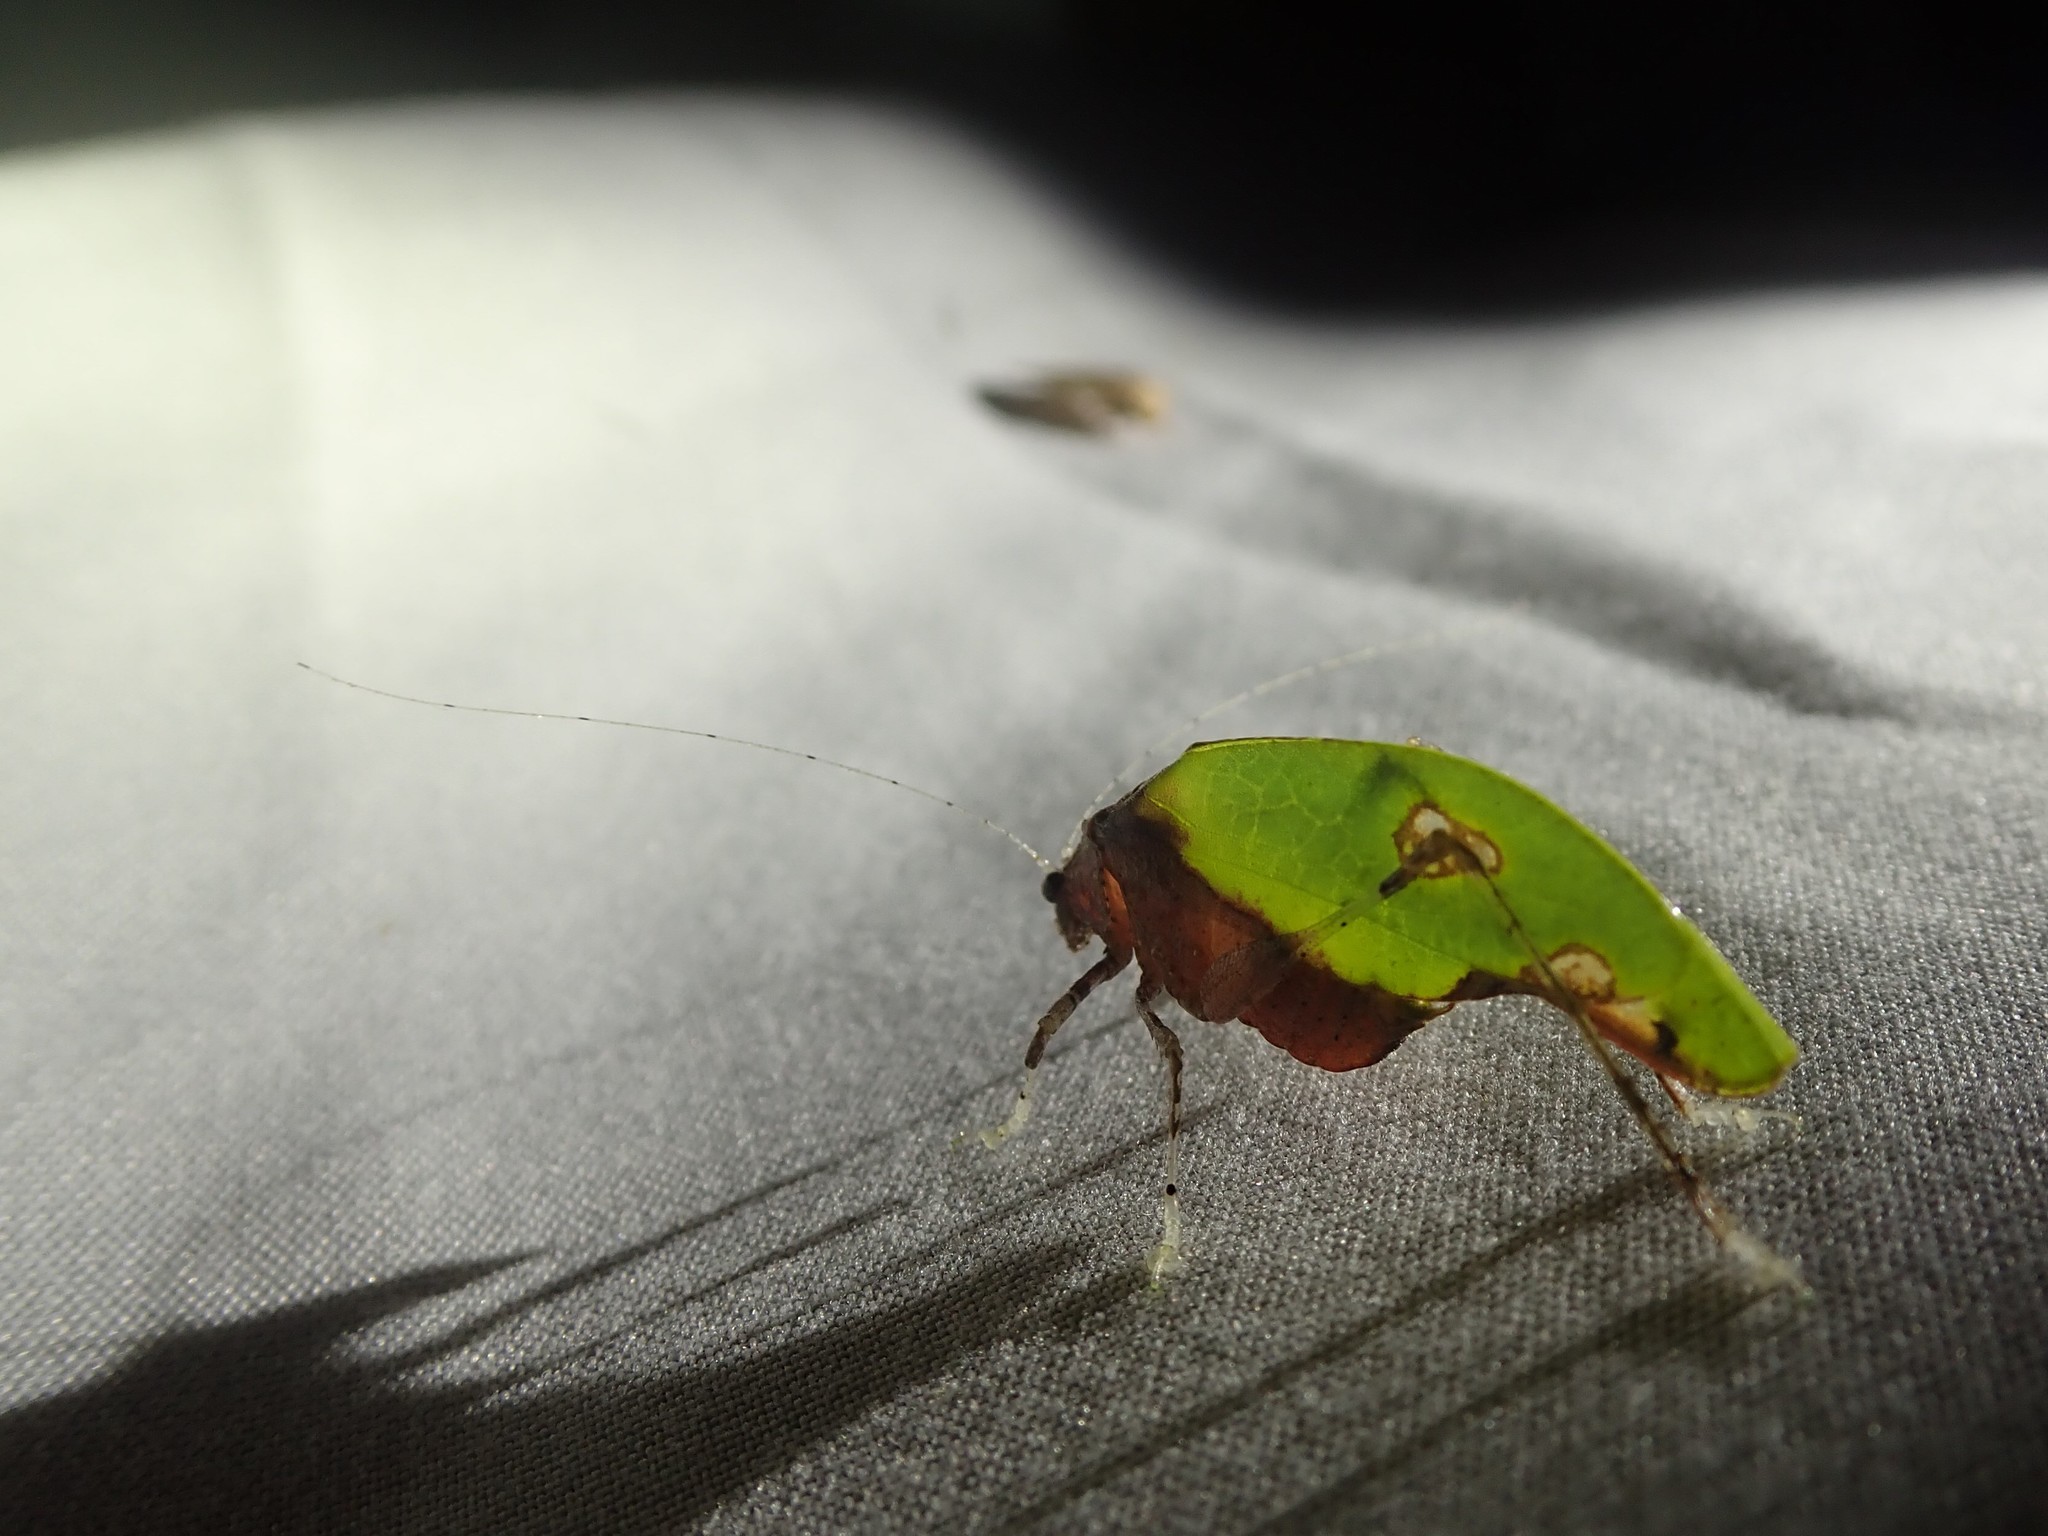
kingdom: Animalia
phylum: Arthropoda
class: Insecta
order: Orthoptera
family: Tettigoniidae
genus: Pycnopalpa
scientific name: Pycnopalpa bicordata
